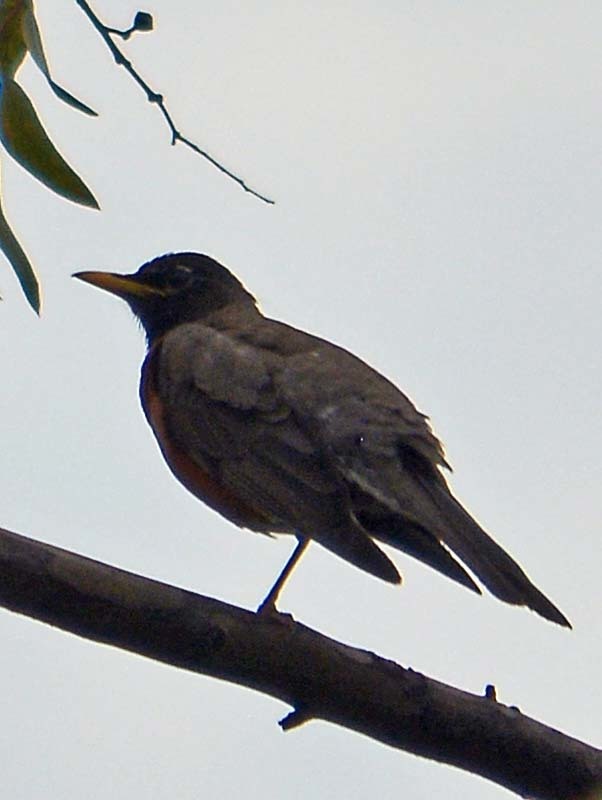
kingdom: Animalia
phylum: Chordata
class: Aves
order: Passeriformes
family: Turdidae
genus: Turdus
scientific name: Turdus migratorius
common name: American robin
